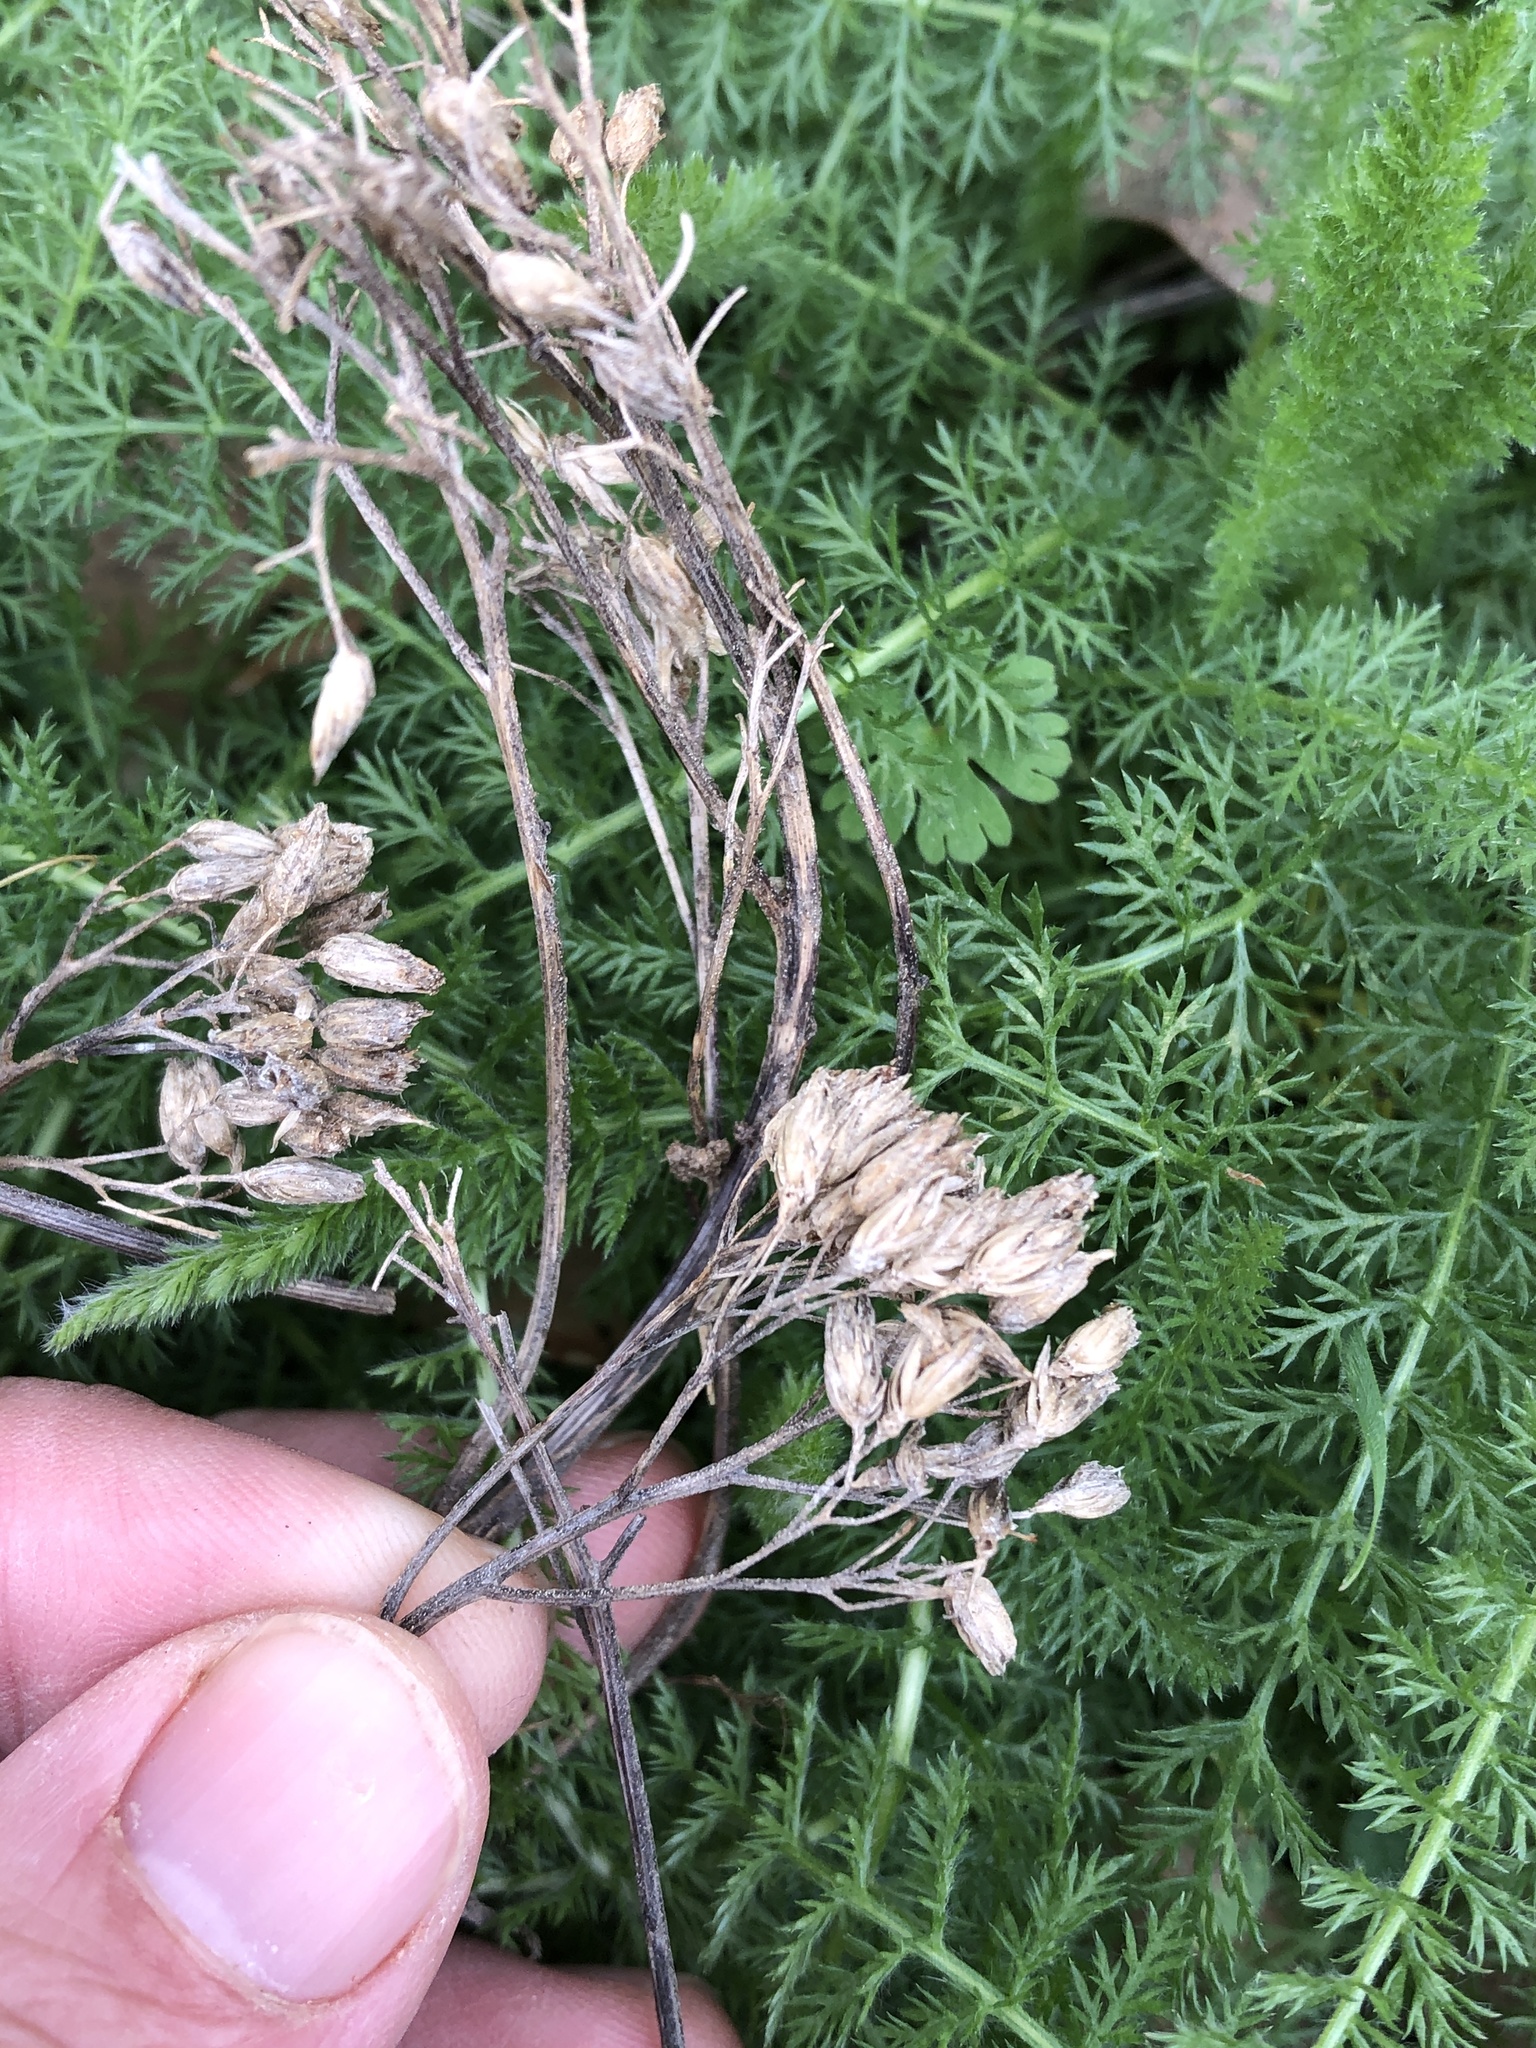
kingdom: Plantae
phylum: Tracheophyta
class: Magnoliopsida
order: Asterales
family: Asteraceae
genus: Achillea
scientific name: Achillea millefolium
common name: Yarrow
